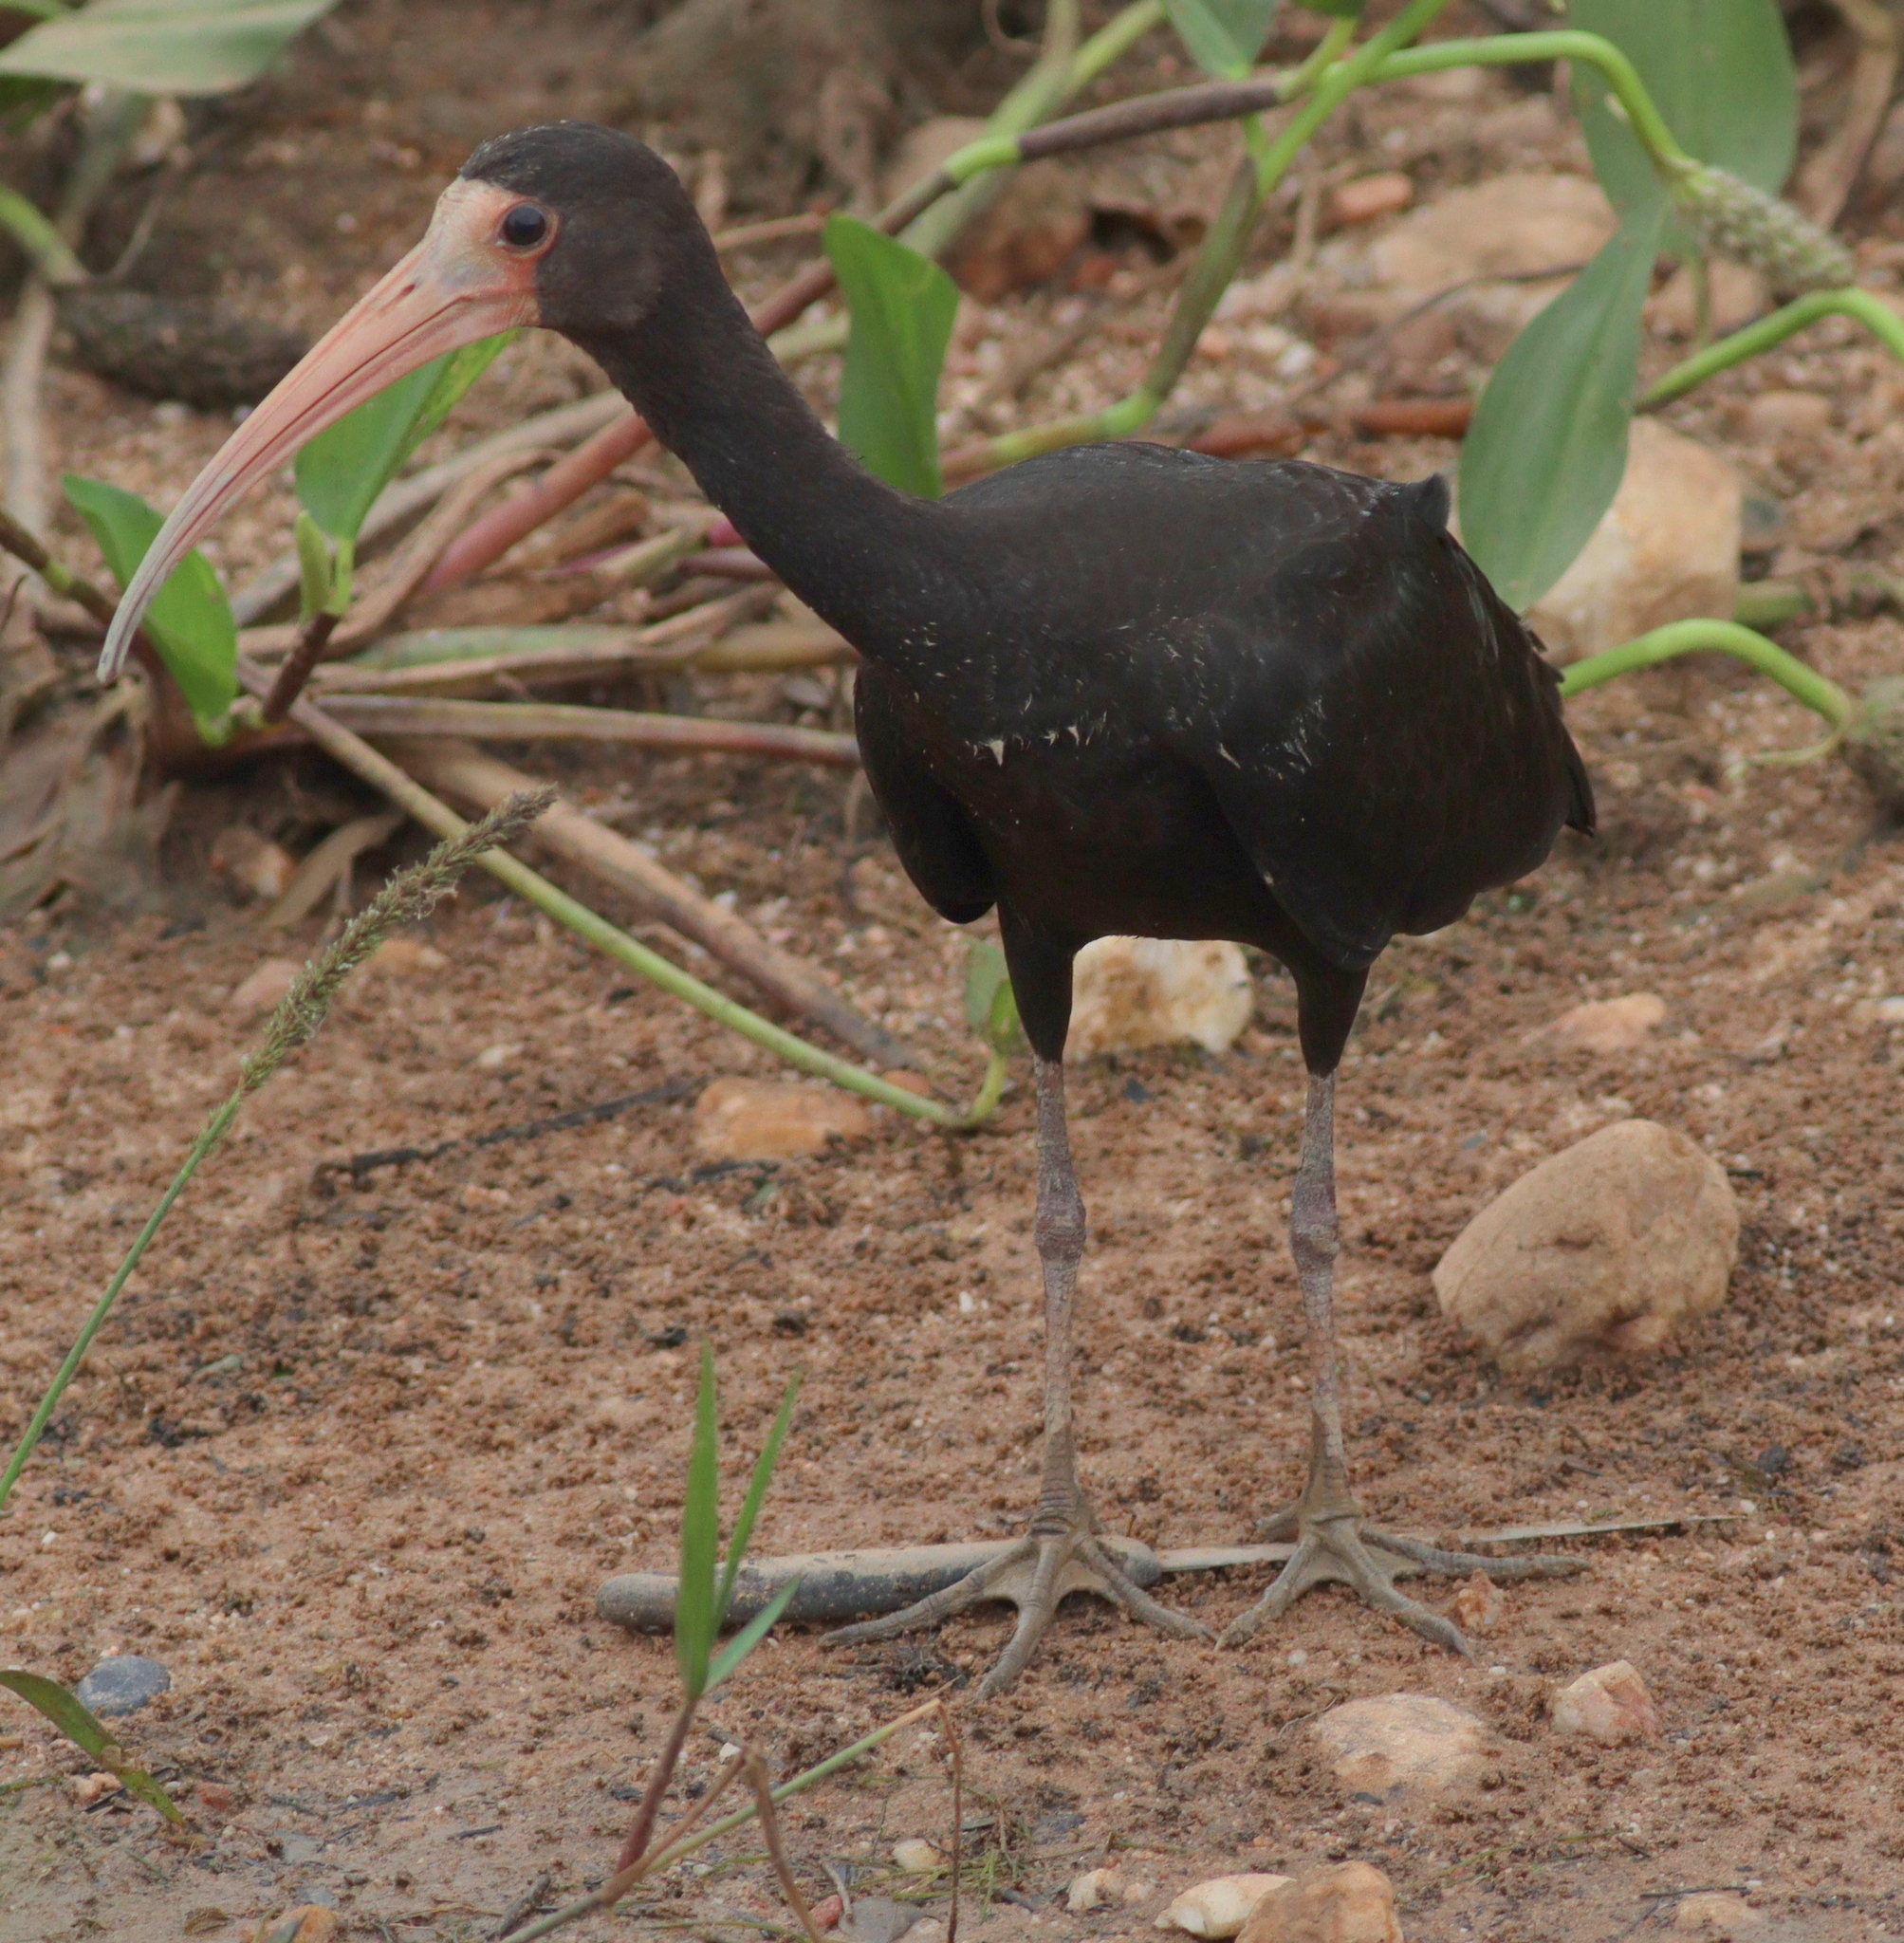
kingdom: Animalia
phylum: Chordata
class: Aves
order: Pelecaniformes
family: Threskiornithidae
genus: Phimosus
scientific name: Phimosus infuscatus
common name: Bare-faced ibis
